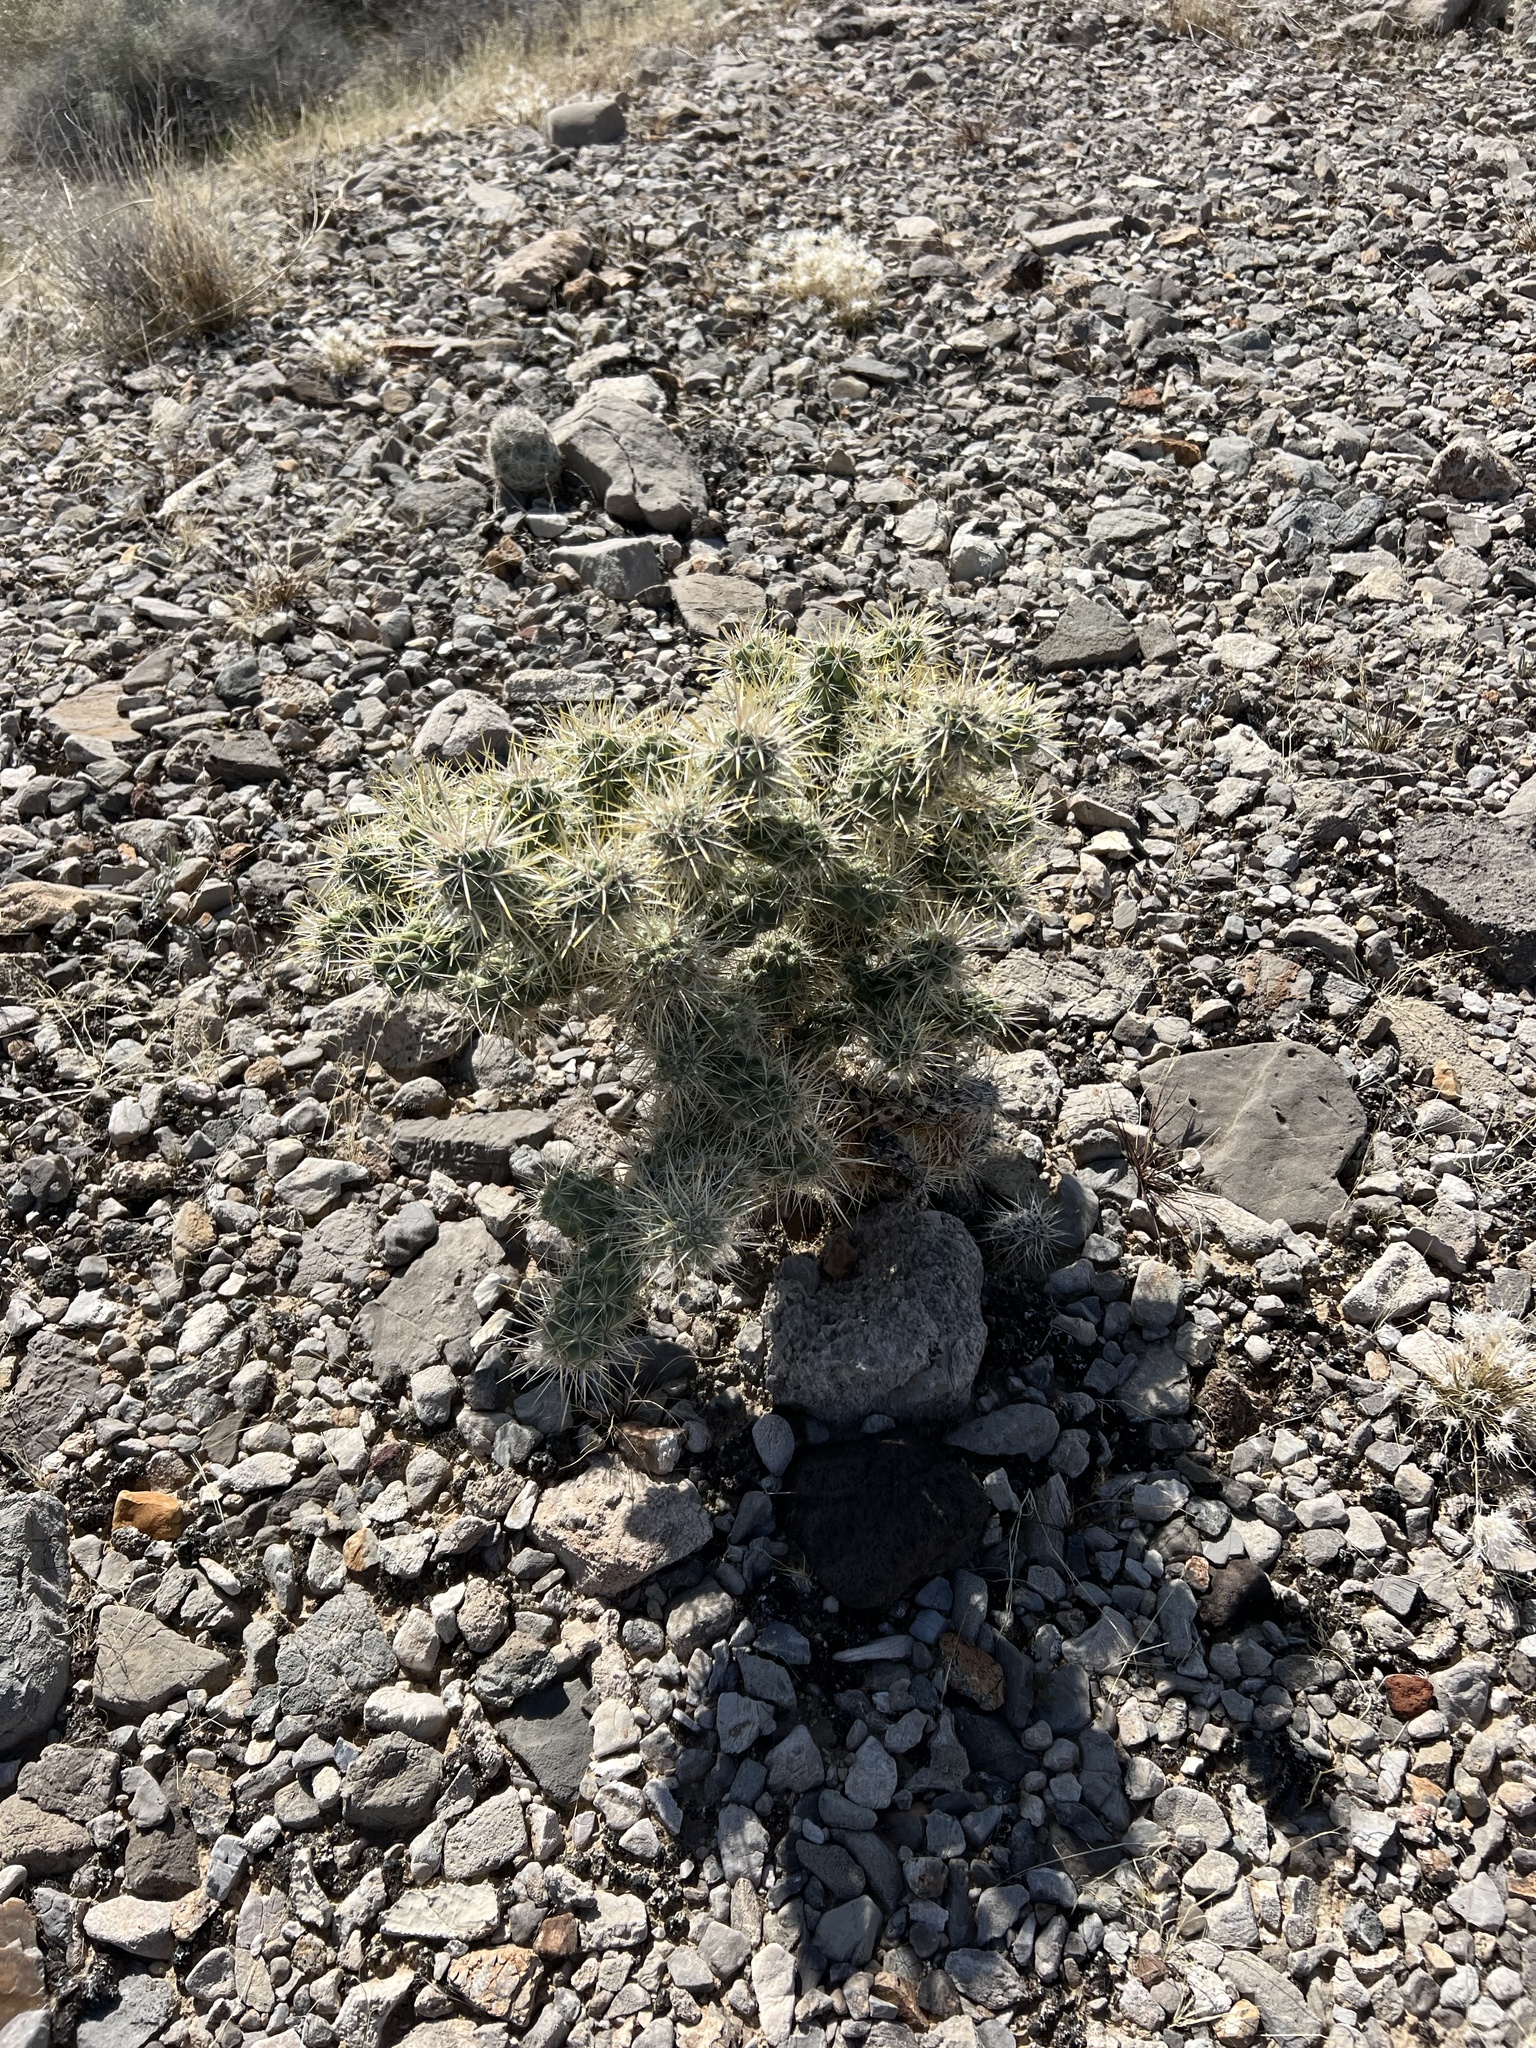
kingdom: Plantae
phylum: Tracheophyta
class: Magnoliopsida
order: Caryophyllales
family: Cactaceae
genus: Cylindropuntia
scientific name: Cylindropuntia echinocarpa
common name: Ground cholla
